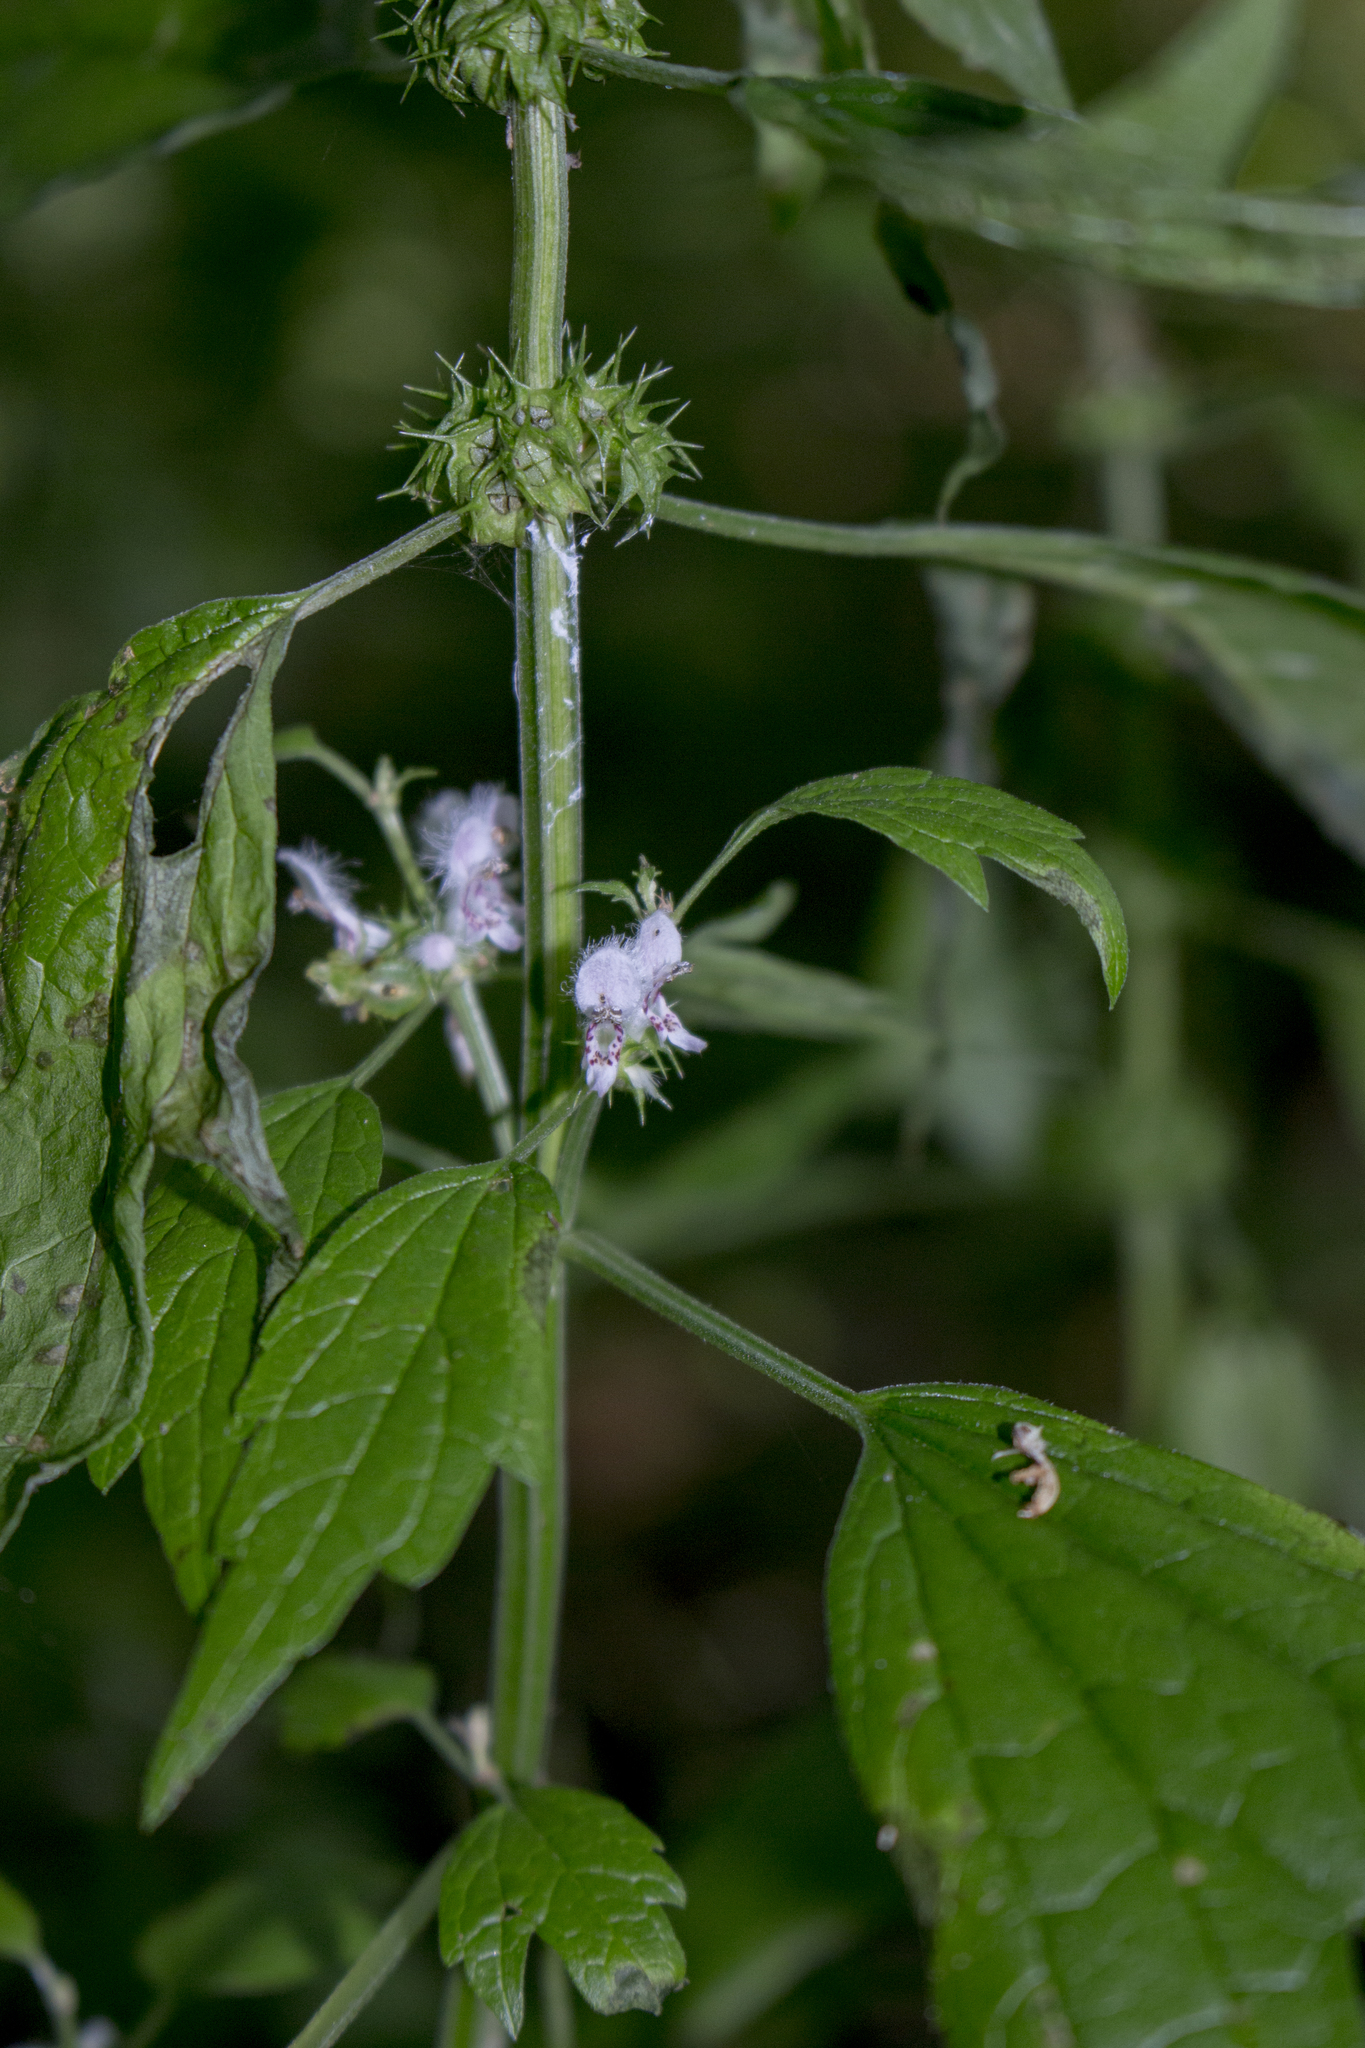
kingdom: Plantae
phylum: Tracheophyta
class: Magnoliopsida
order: Lamiales
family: Lamiaceae
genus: Leonurus
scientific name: Leonurus cardiaca
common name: Motherwort
